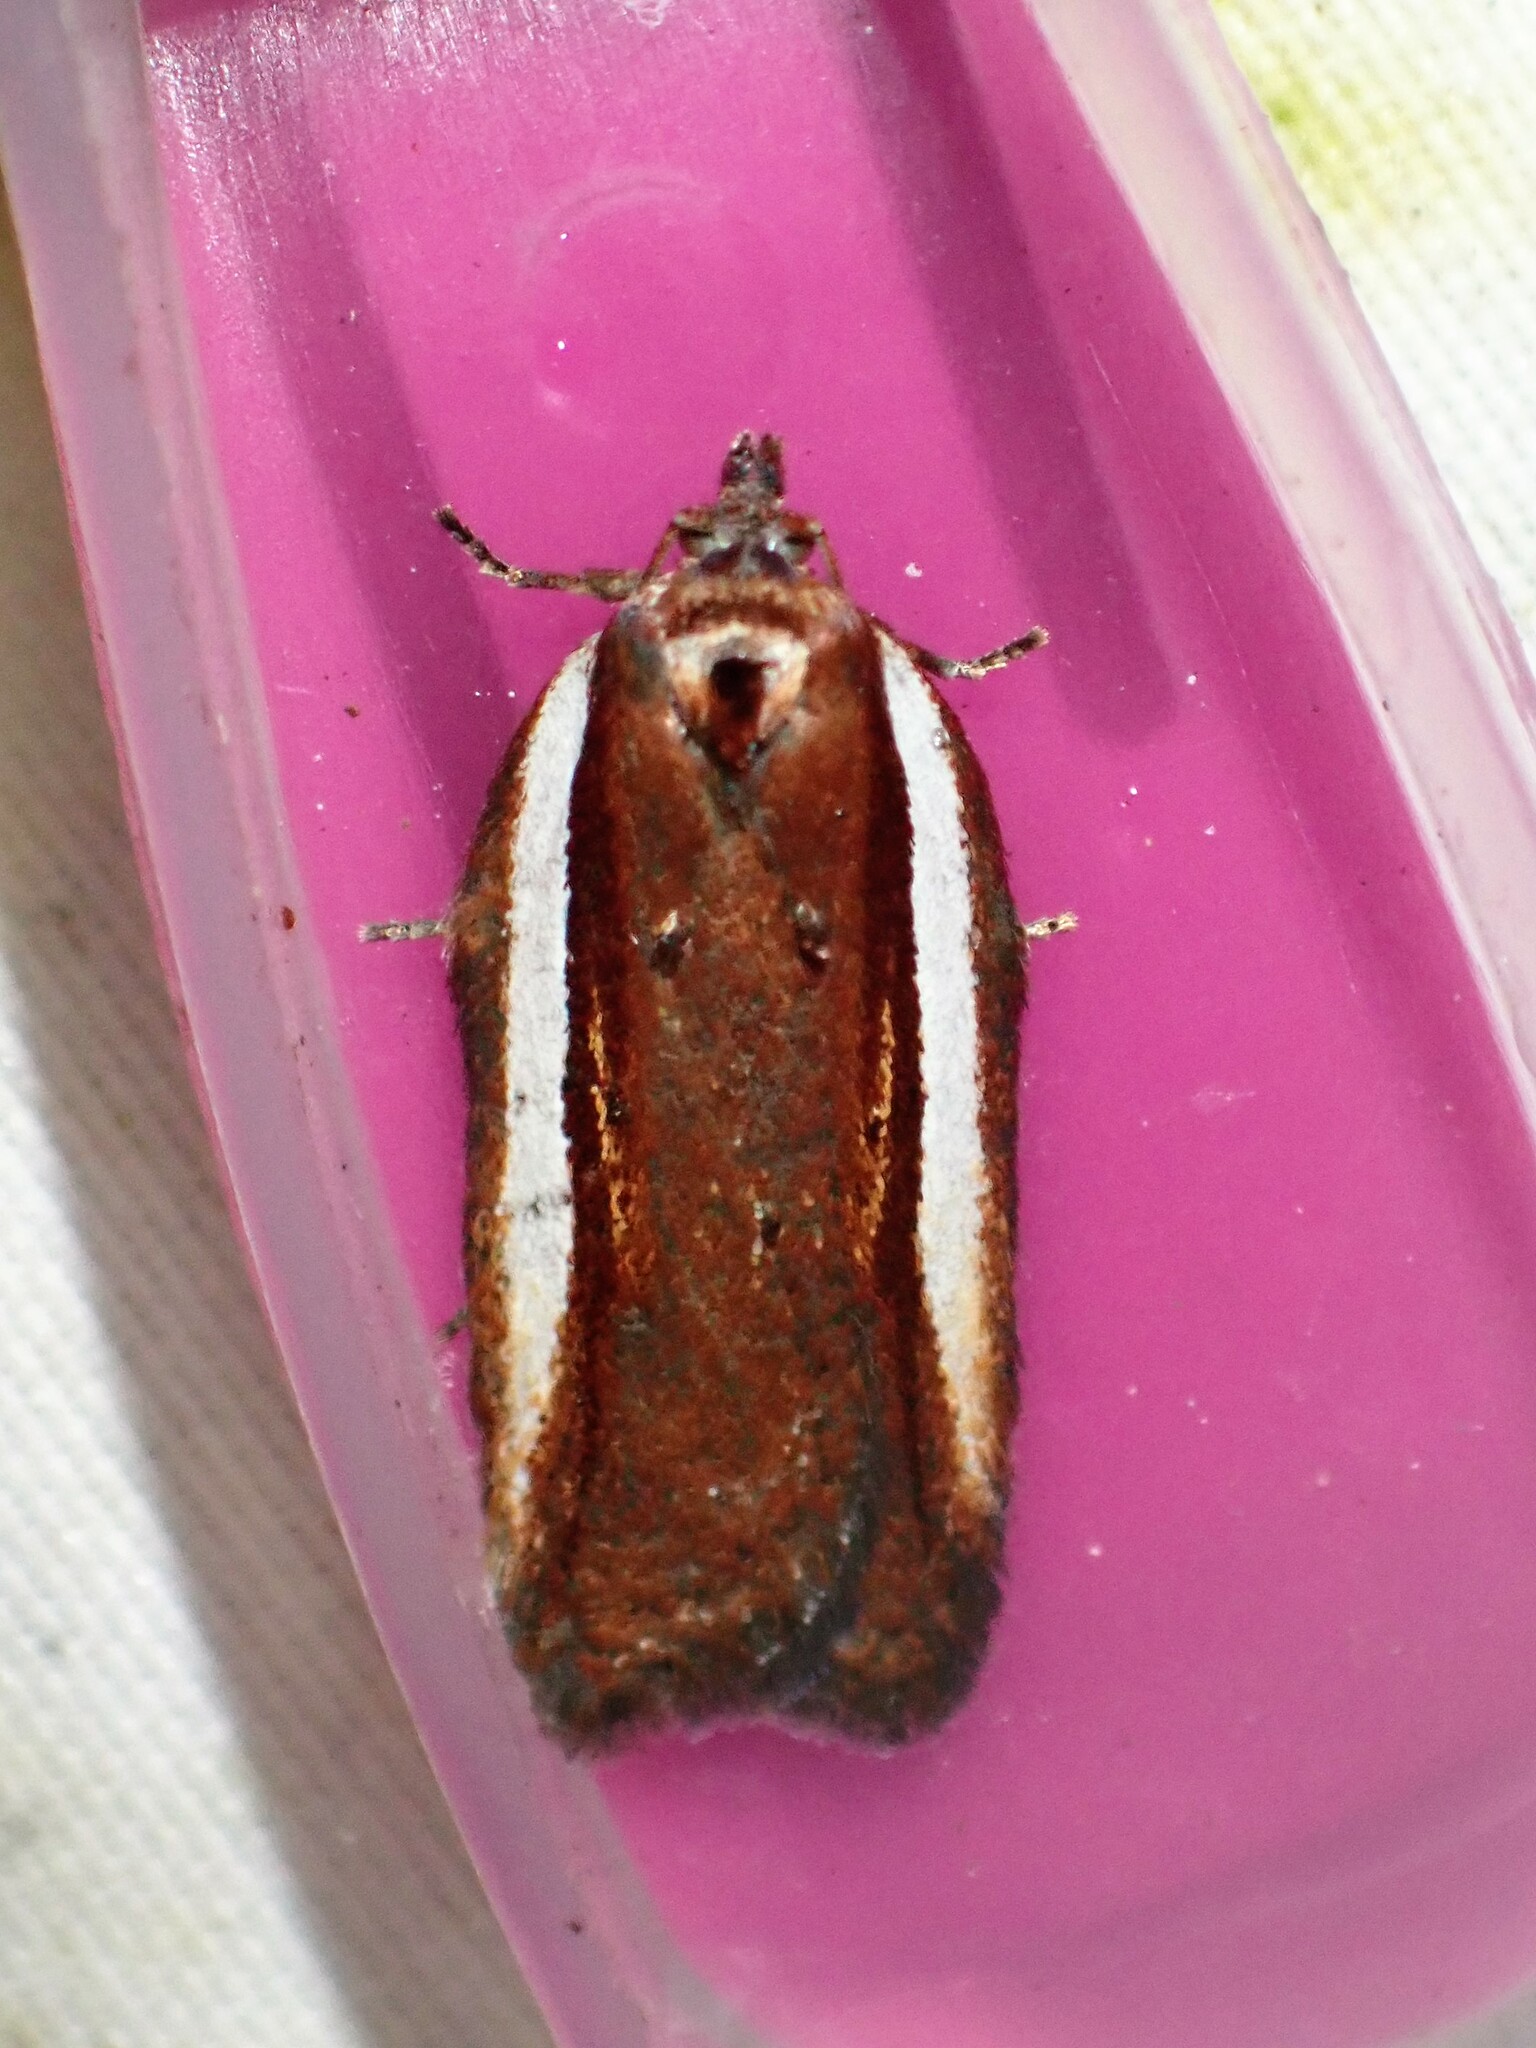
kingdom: Animalia
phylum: Arthropoda
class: Insecta
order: Lepidoptera
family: Tortricidae
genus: Acleris
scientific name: Acleris celiana
